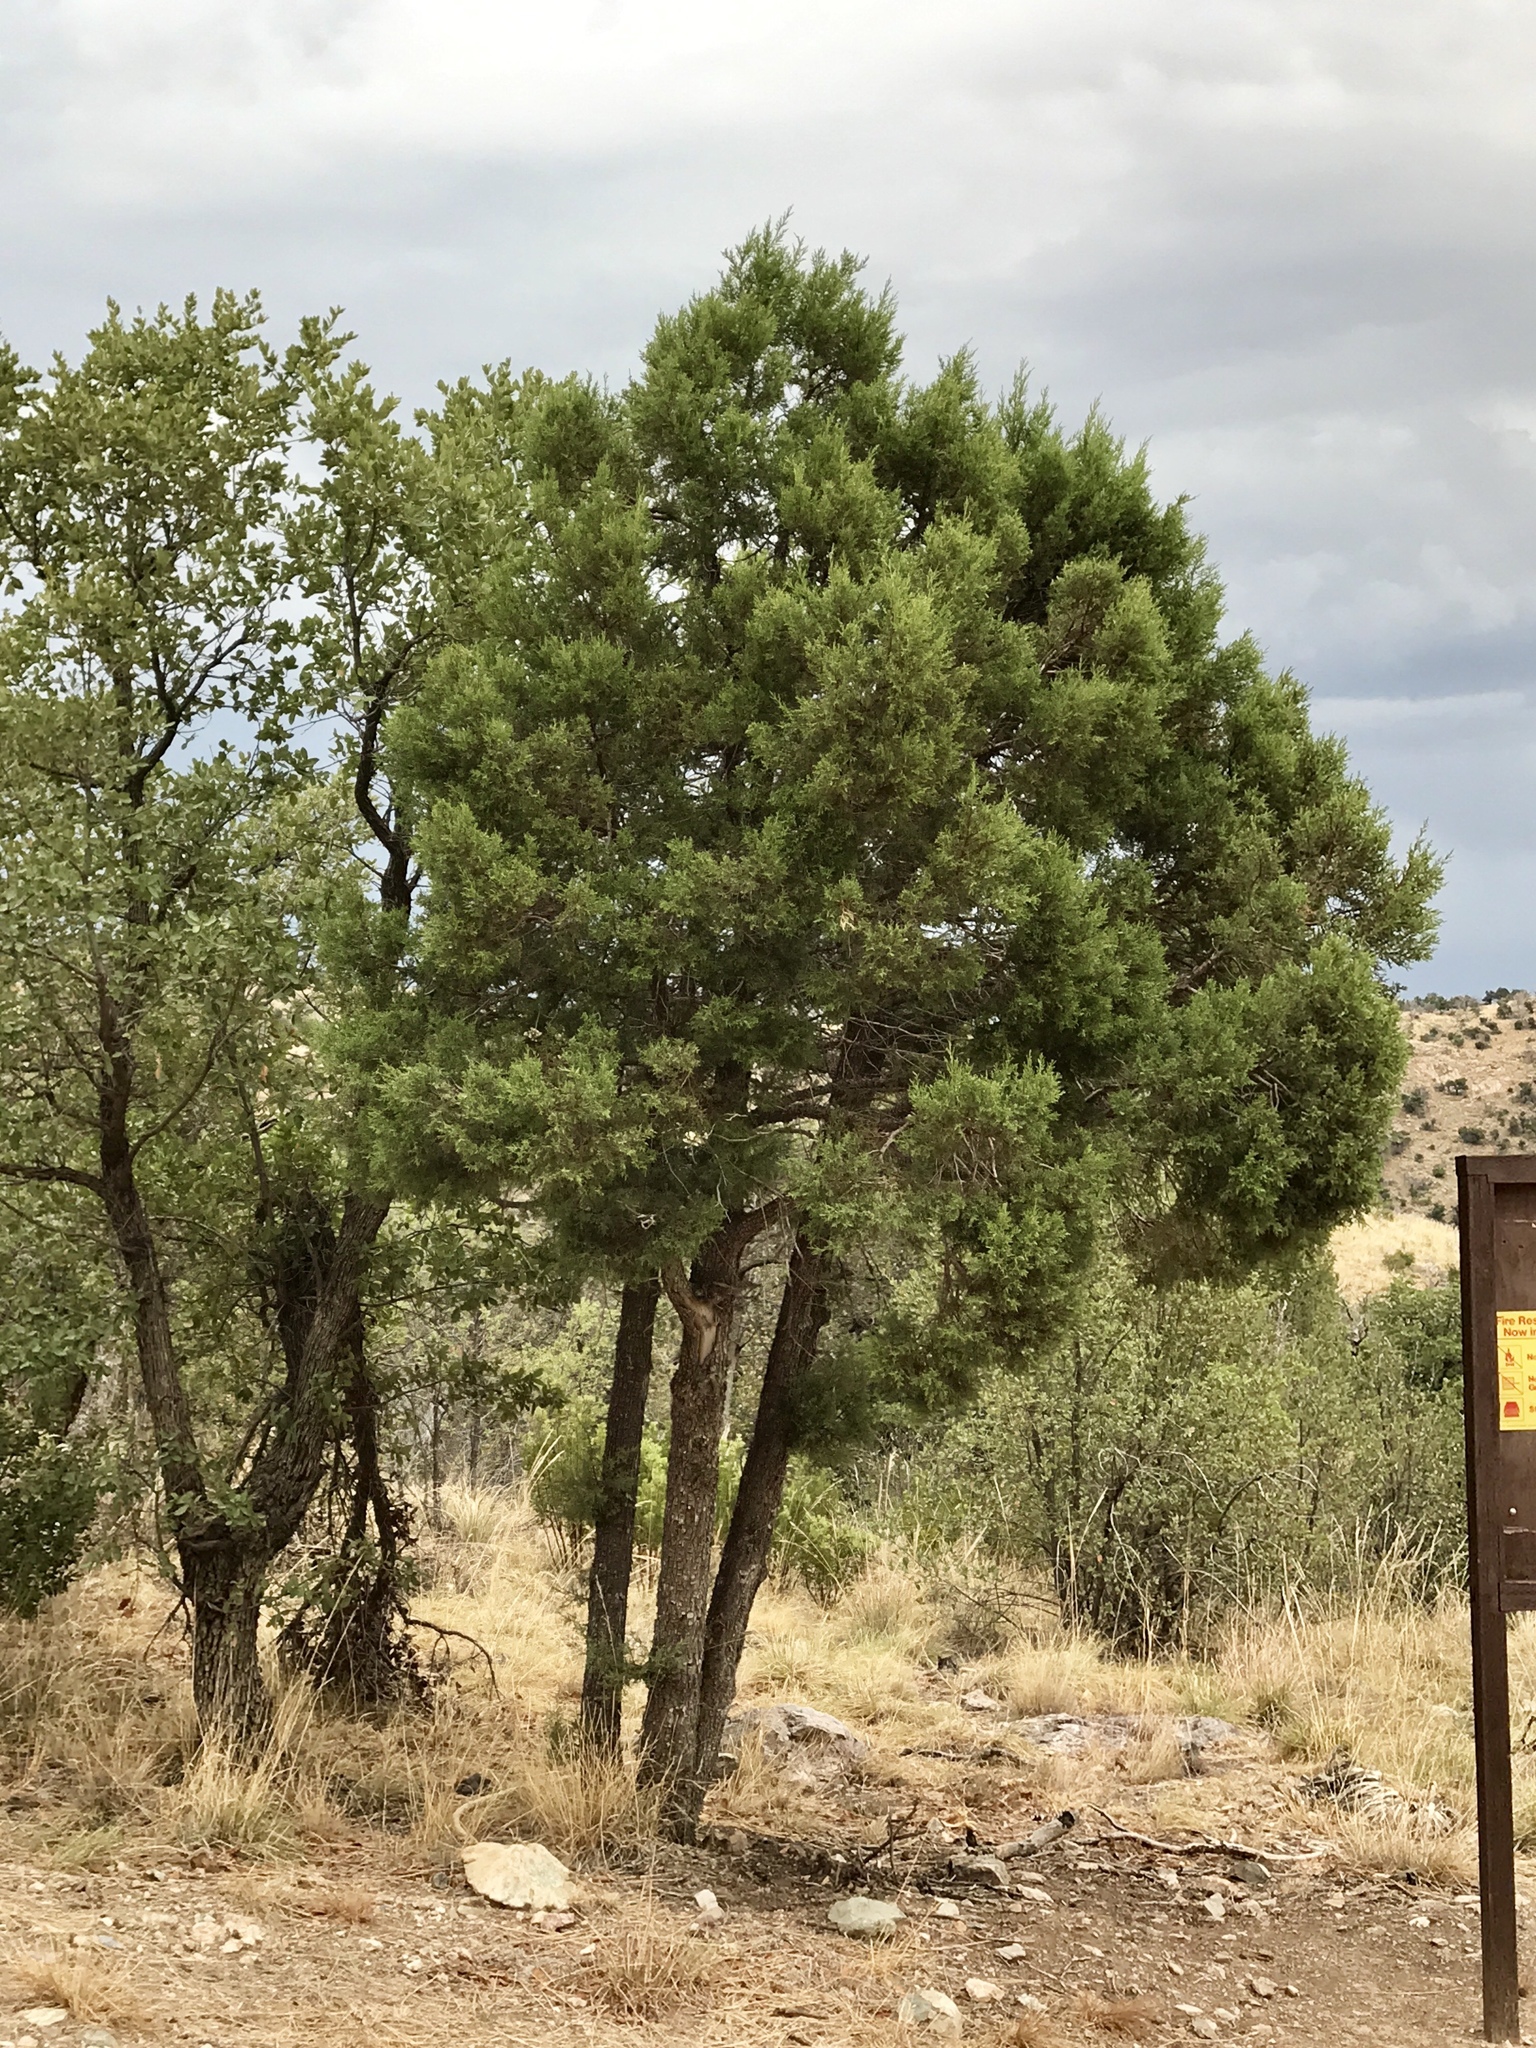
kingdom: Plantae
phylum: Tracheophyta
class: Pinopsida
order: Pinales
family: Cupressaceae
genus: Juniperus
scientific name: Juniperus deppeana
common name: Alligator juniper
